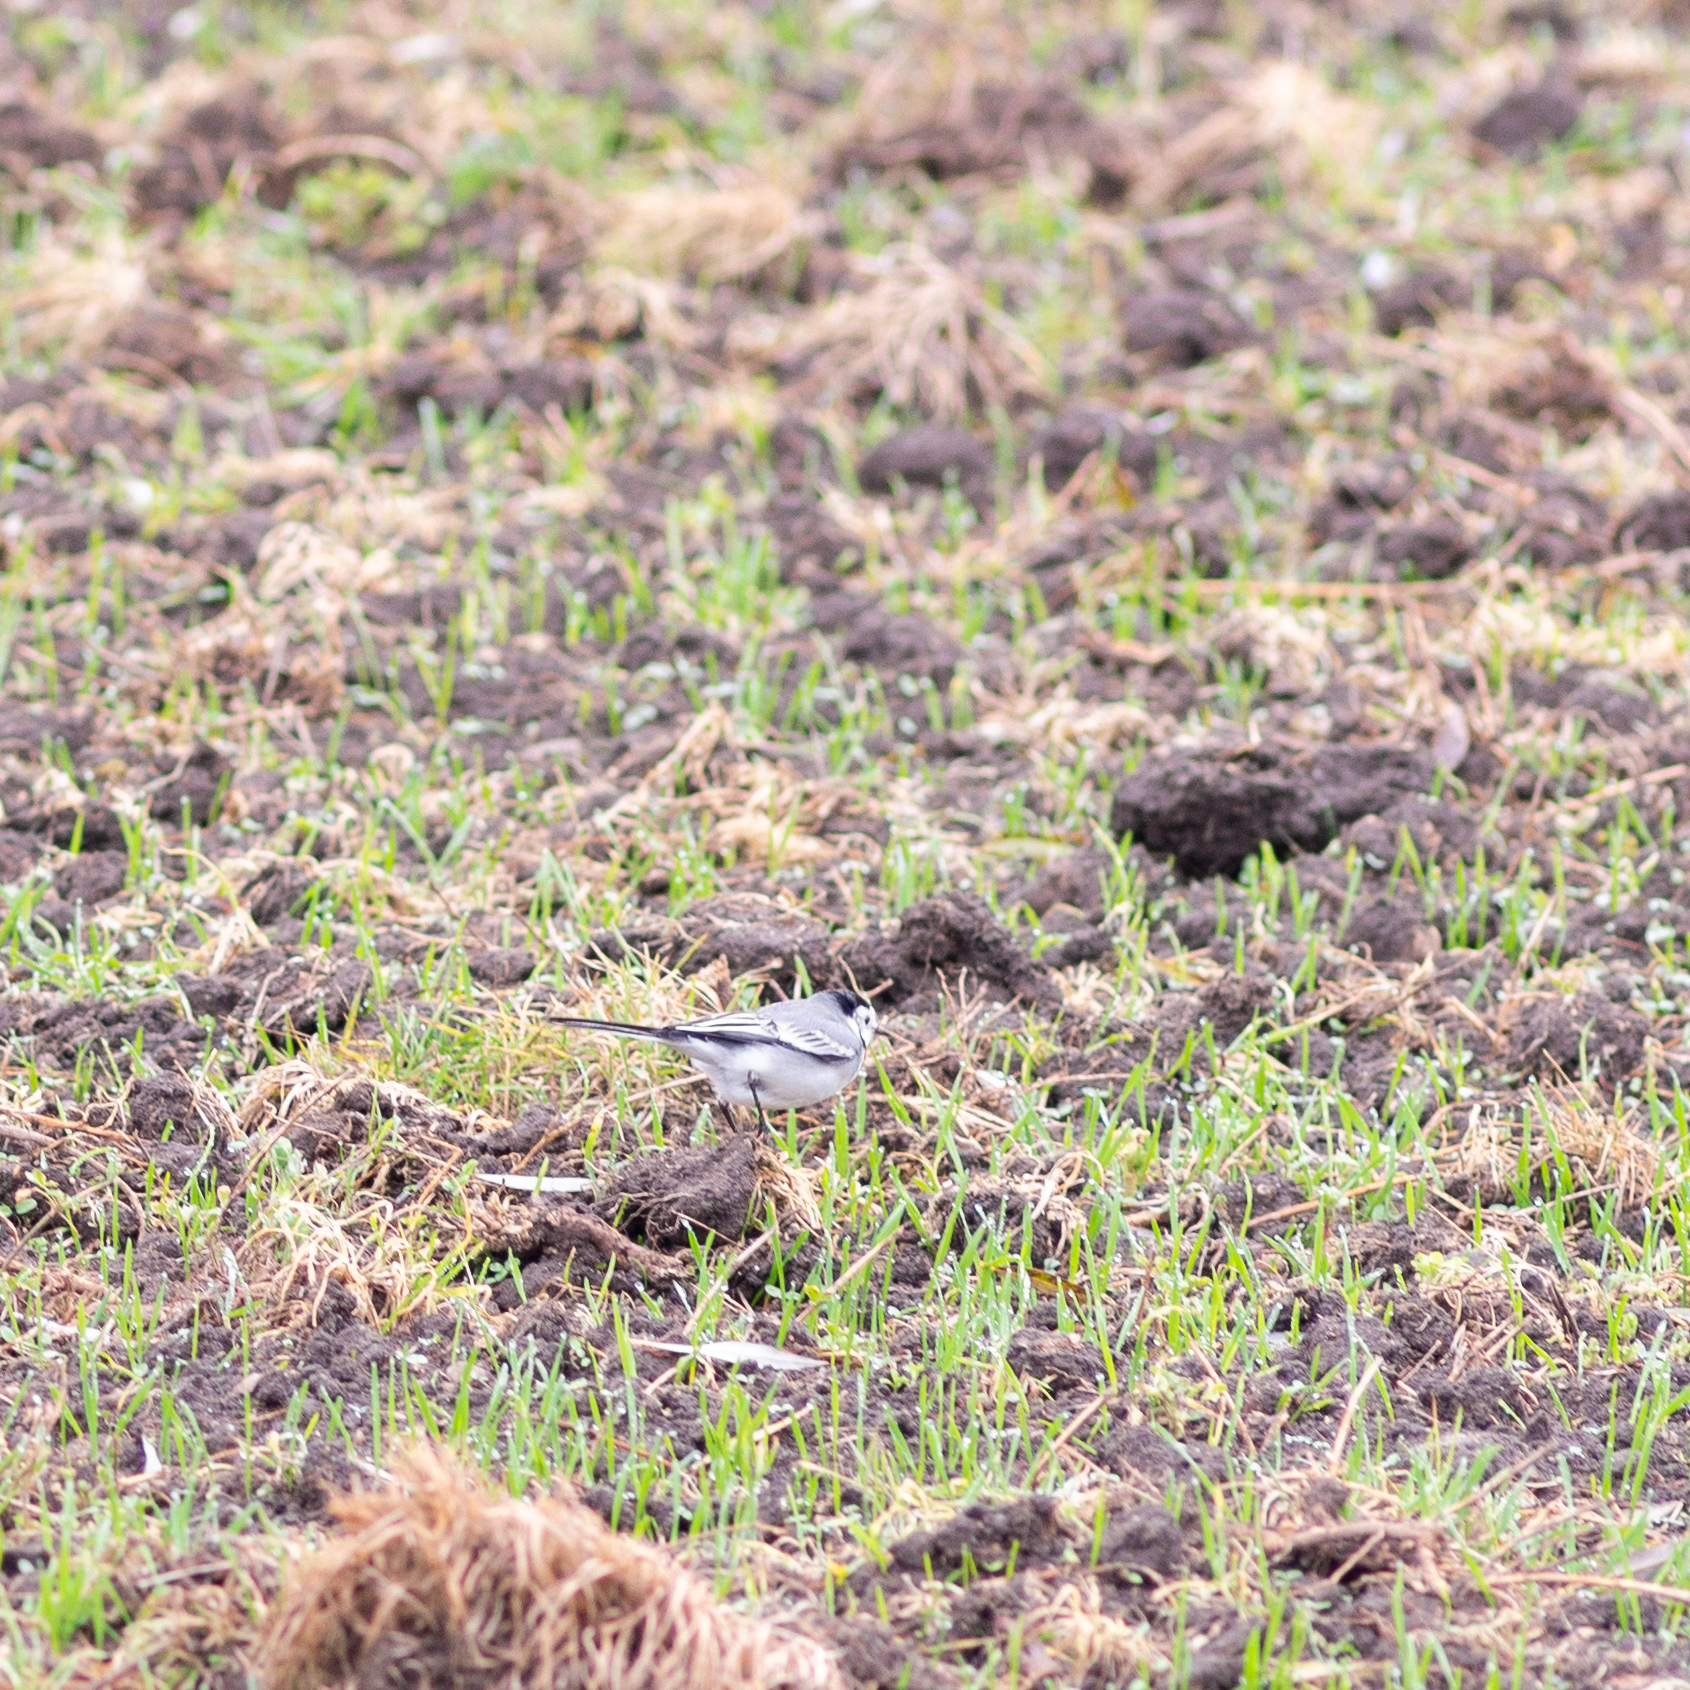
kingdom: Animalia
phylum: Chordata
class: Aves
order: Passeriformes
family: Motacillidae
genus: Motacilla
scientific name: Motacilla alba
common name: White wagtail
